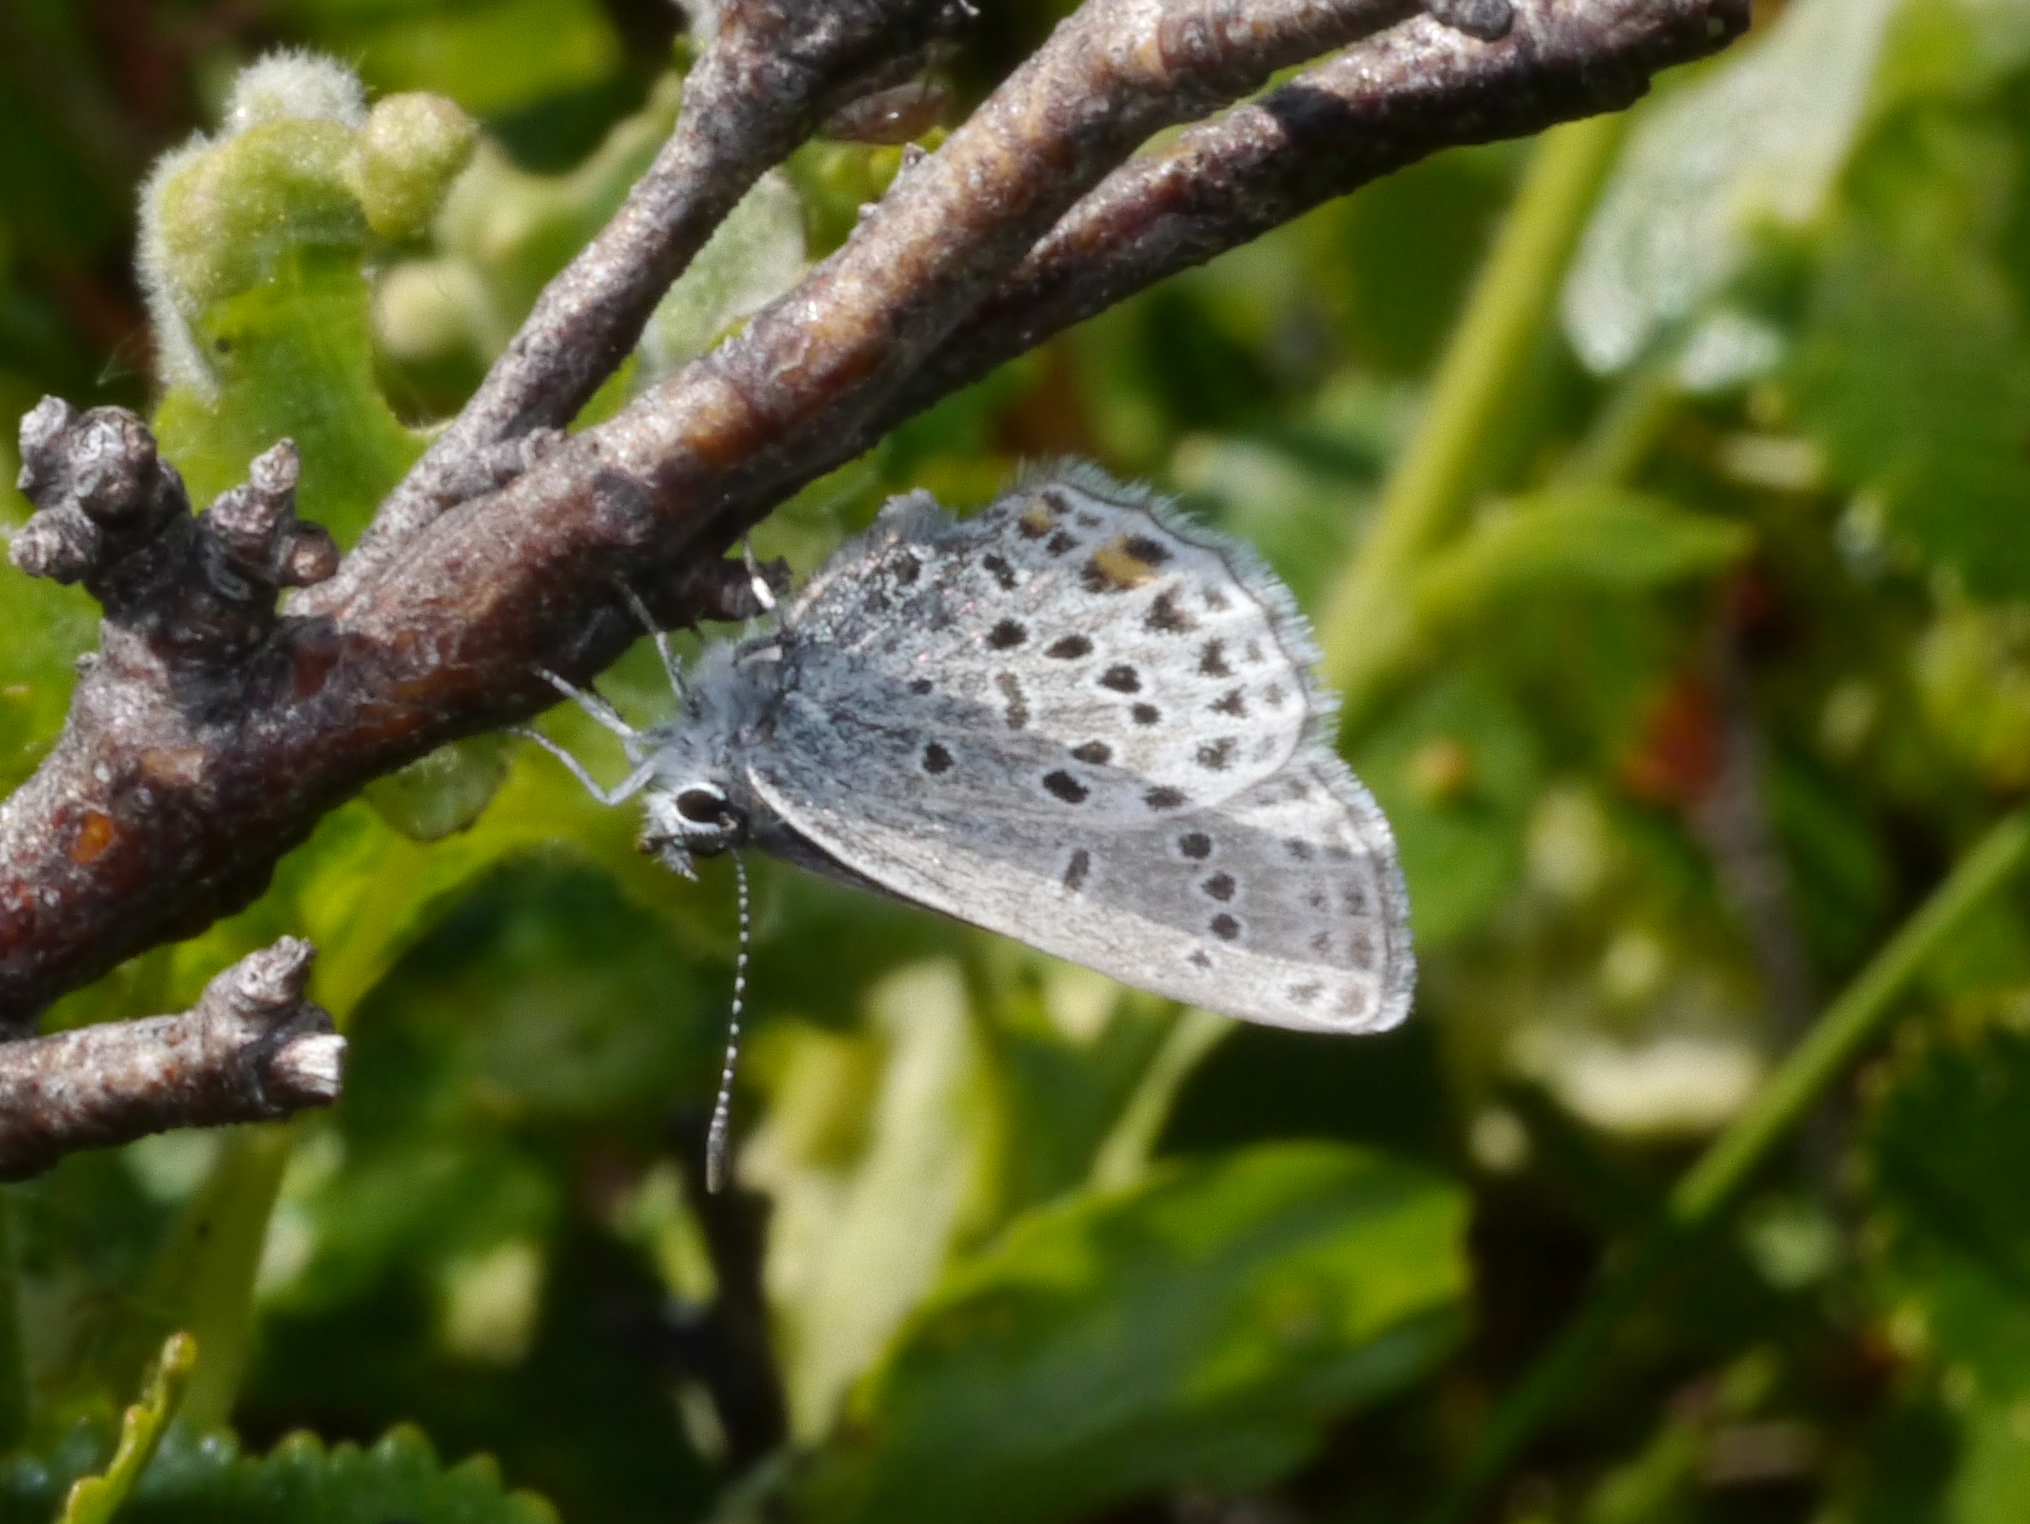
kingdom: Animalia
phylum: Arthropoda
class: Insecta
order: Lepidoptera
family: Lycaenidae
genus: Vacciniina
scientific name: Vacciniina optilete
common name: Cranberry blue
